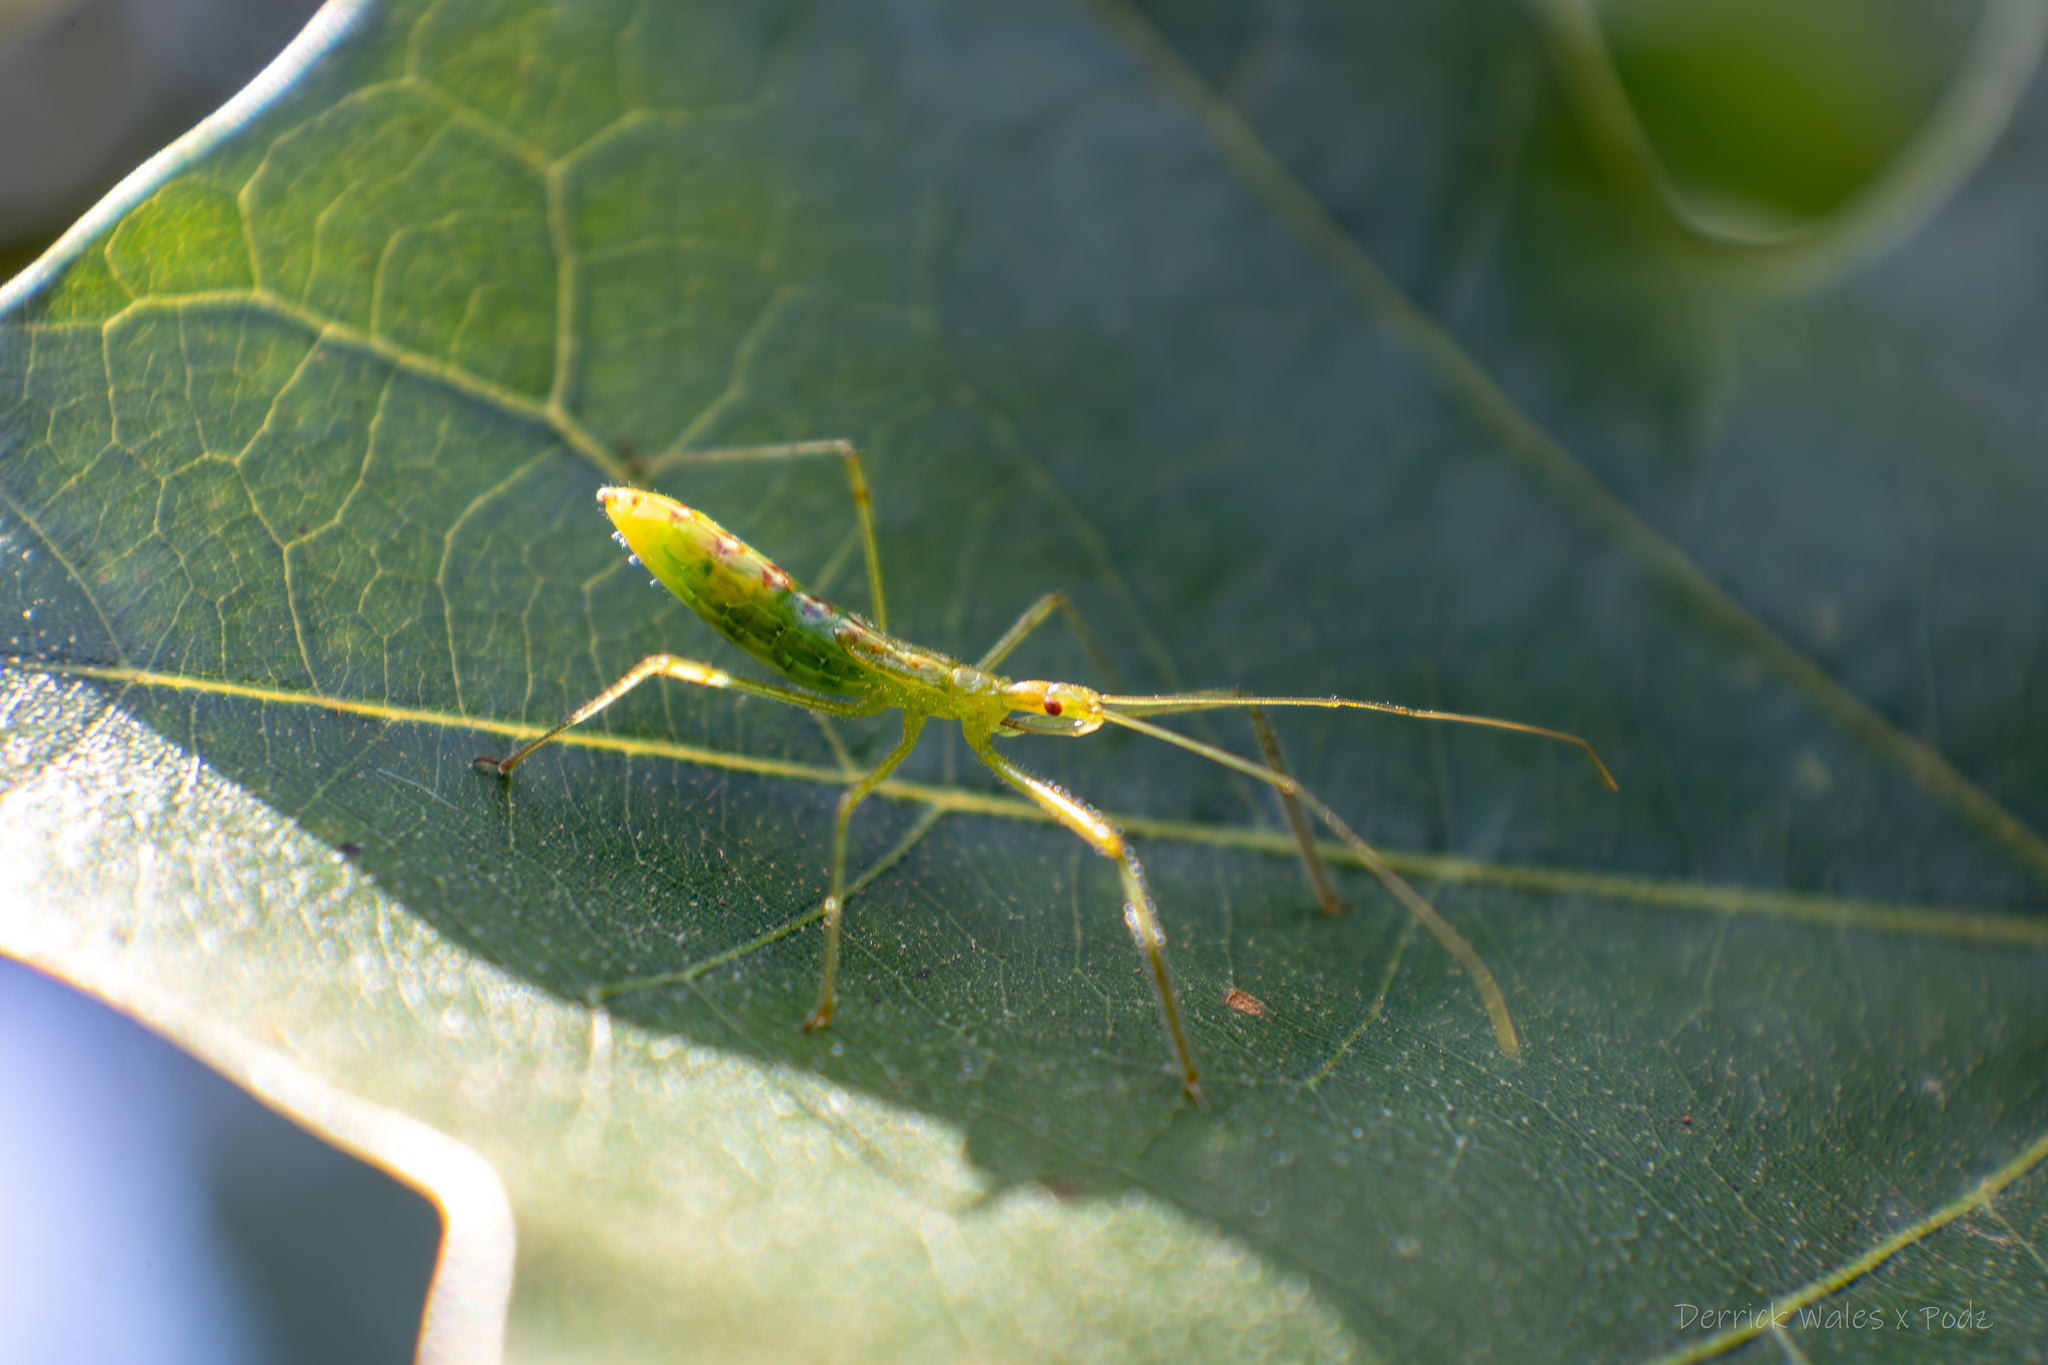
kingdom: Animalia
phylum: Arthropoda
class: Insecta
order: Hemiptera
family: Reduviidae
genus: Zelus
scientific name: Zelus luridus
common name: Pale green assassin bug
